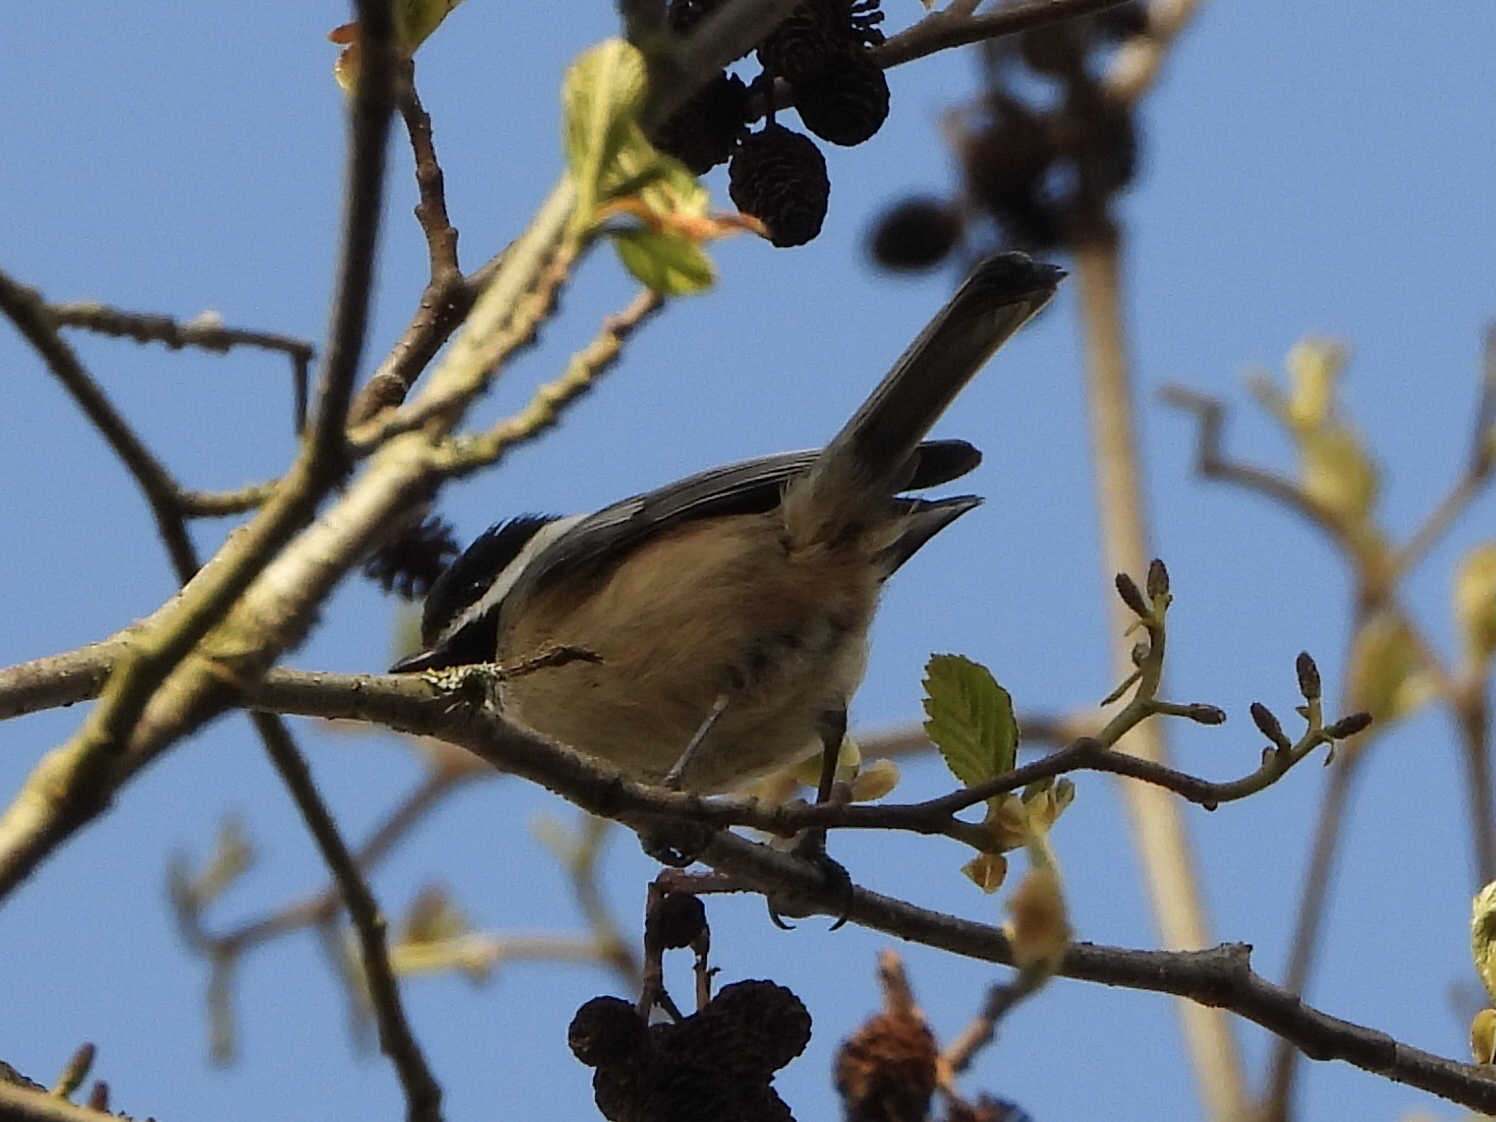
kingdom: Animalia
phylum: Chordata
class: Aves
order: Passeriformes
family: Paridae
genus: Poecile
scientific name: Poecile atricapillus
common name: Black-capped chickadee
